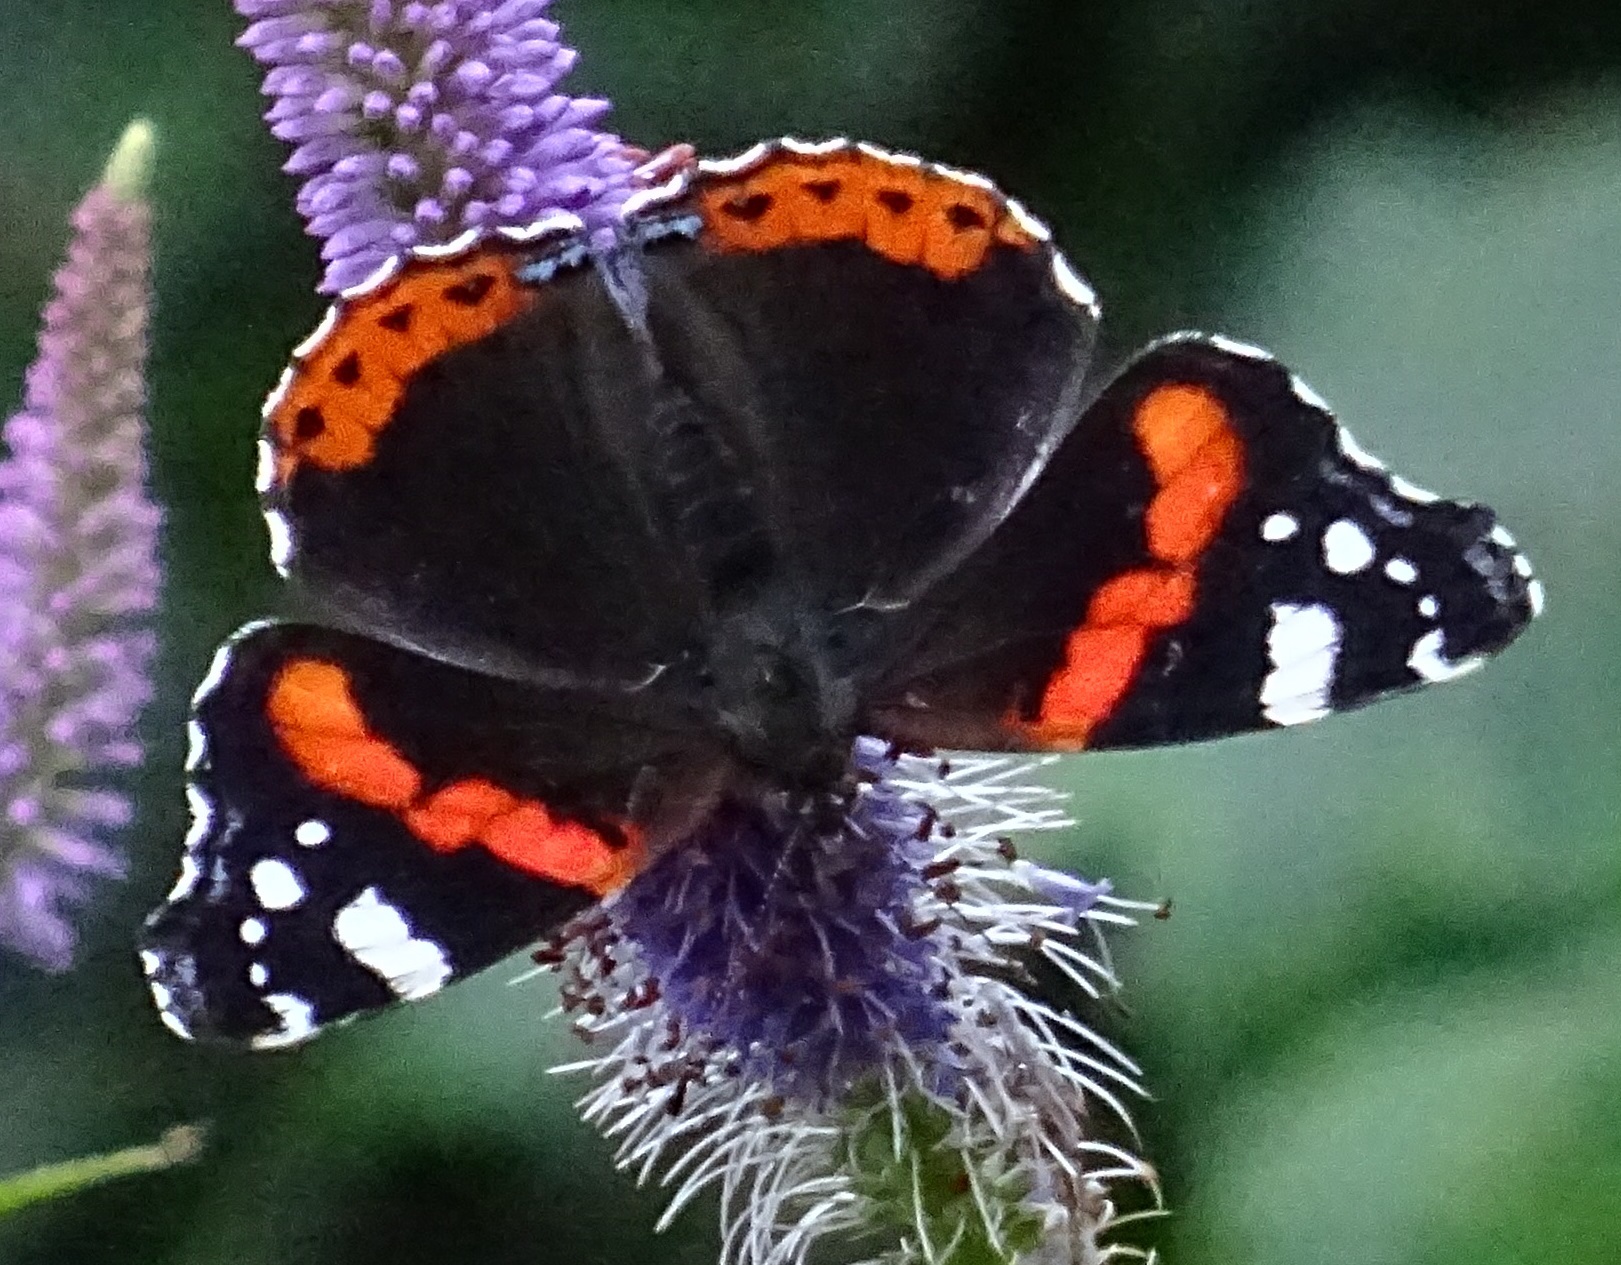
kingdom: Animalia
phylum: Arthropoda
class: Insecta
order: Lepidoptera
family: Nymphalidae
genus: Vanessa
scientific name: Vanessa atalanta
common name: Red admiral
